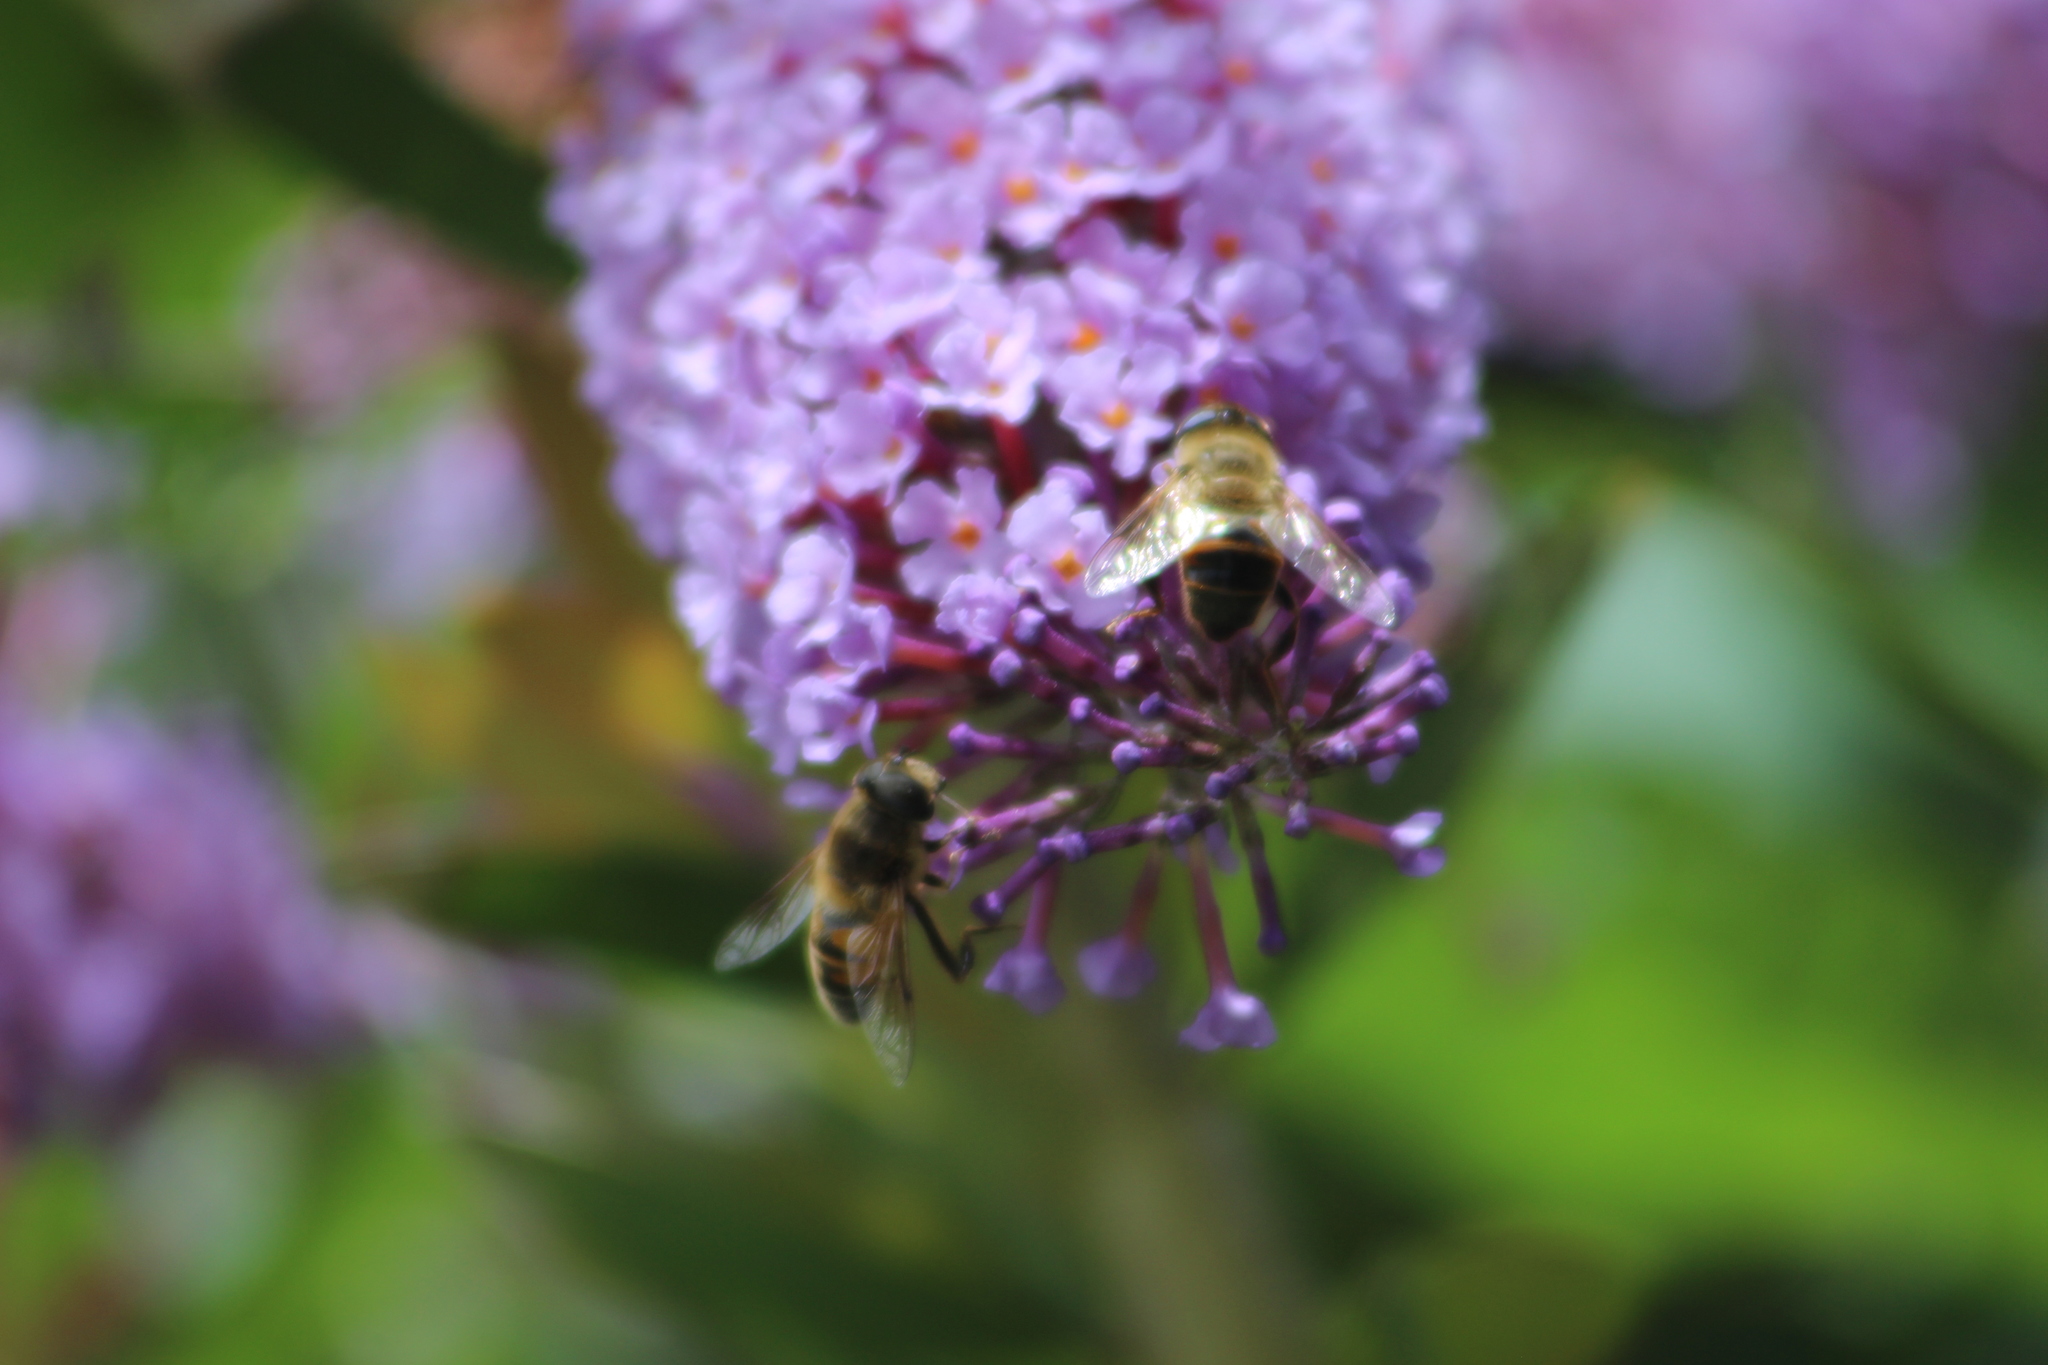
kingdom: Animalia
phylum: Arthropoda
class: Insecta
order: Diptera
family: Syrphidae
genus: Eristalis
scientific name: Eristalis tenax
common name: Drone fly
